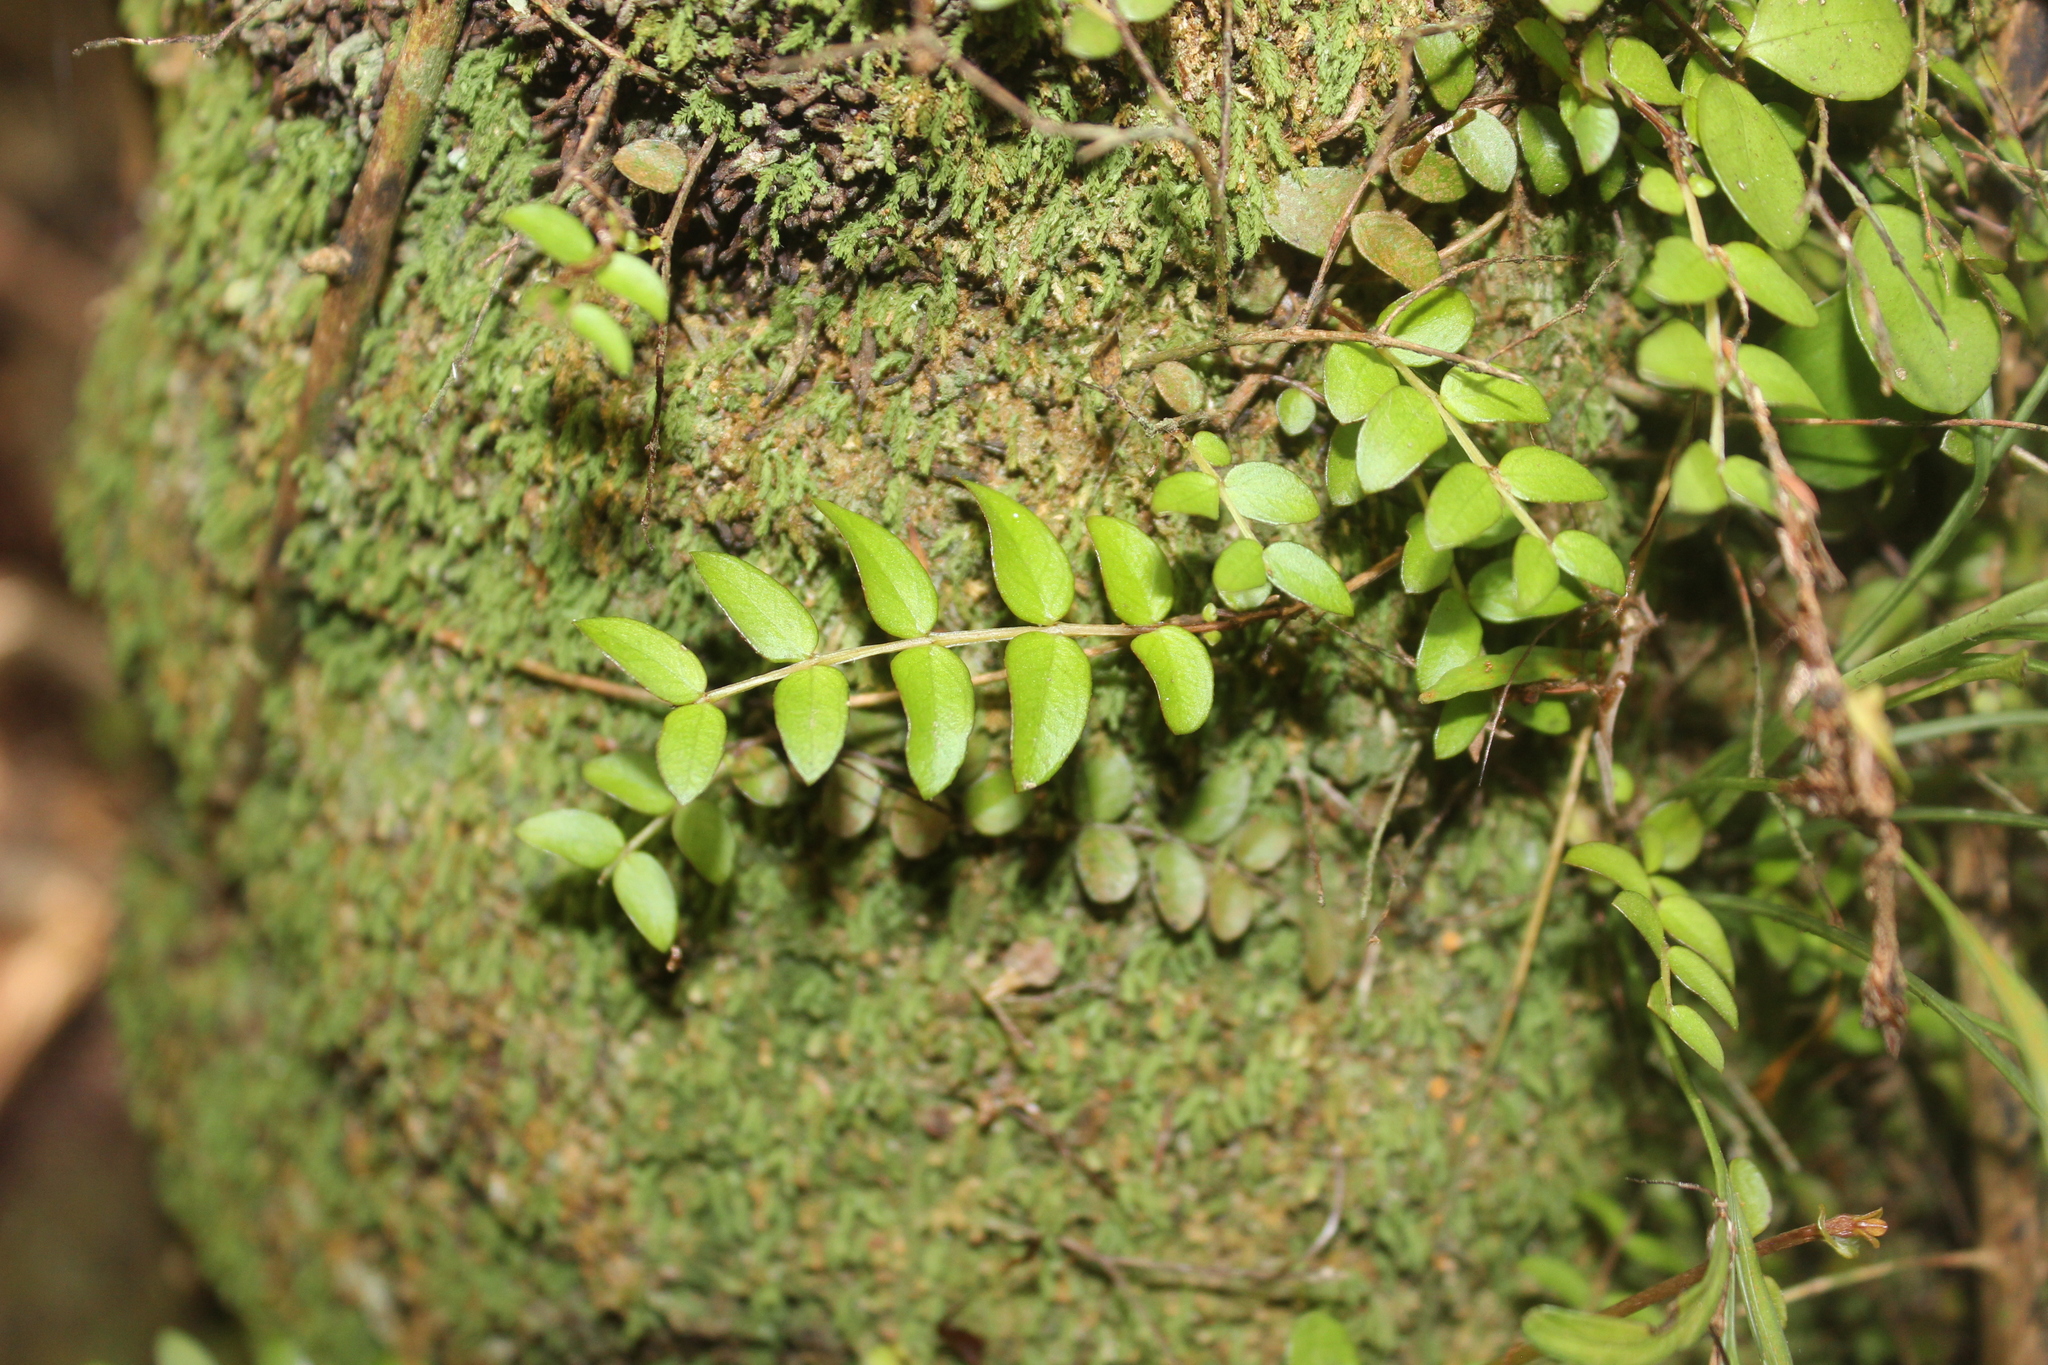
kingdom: Plantae
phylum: Tracheophyta
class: Magnoliopsida
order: Myrtales
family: Myrtaceae
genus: Metrosideros
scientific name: Metrosideros diffusa
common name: Small ratavine
